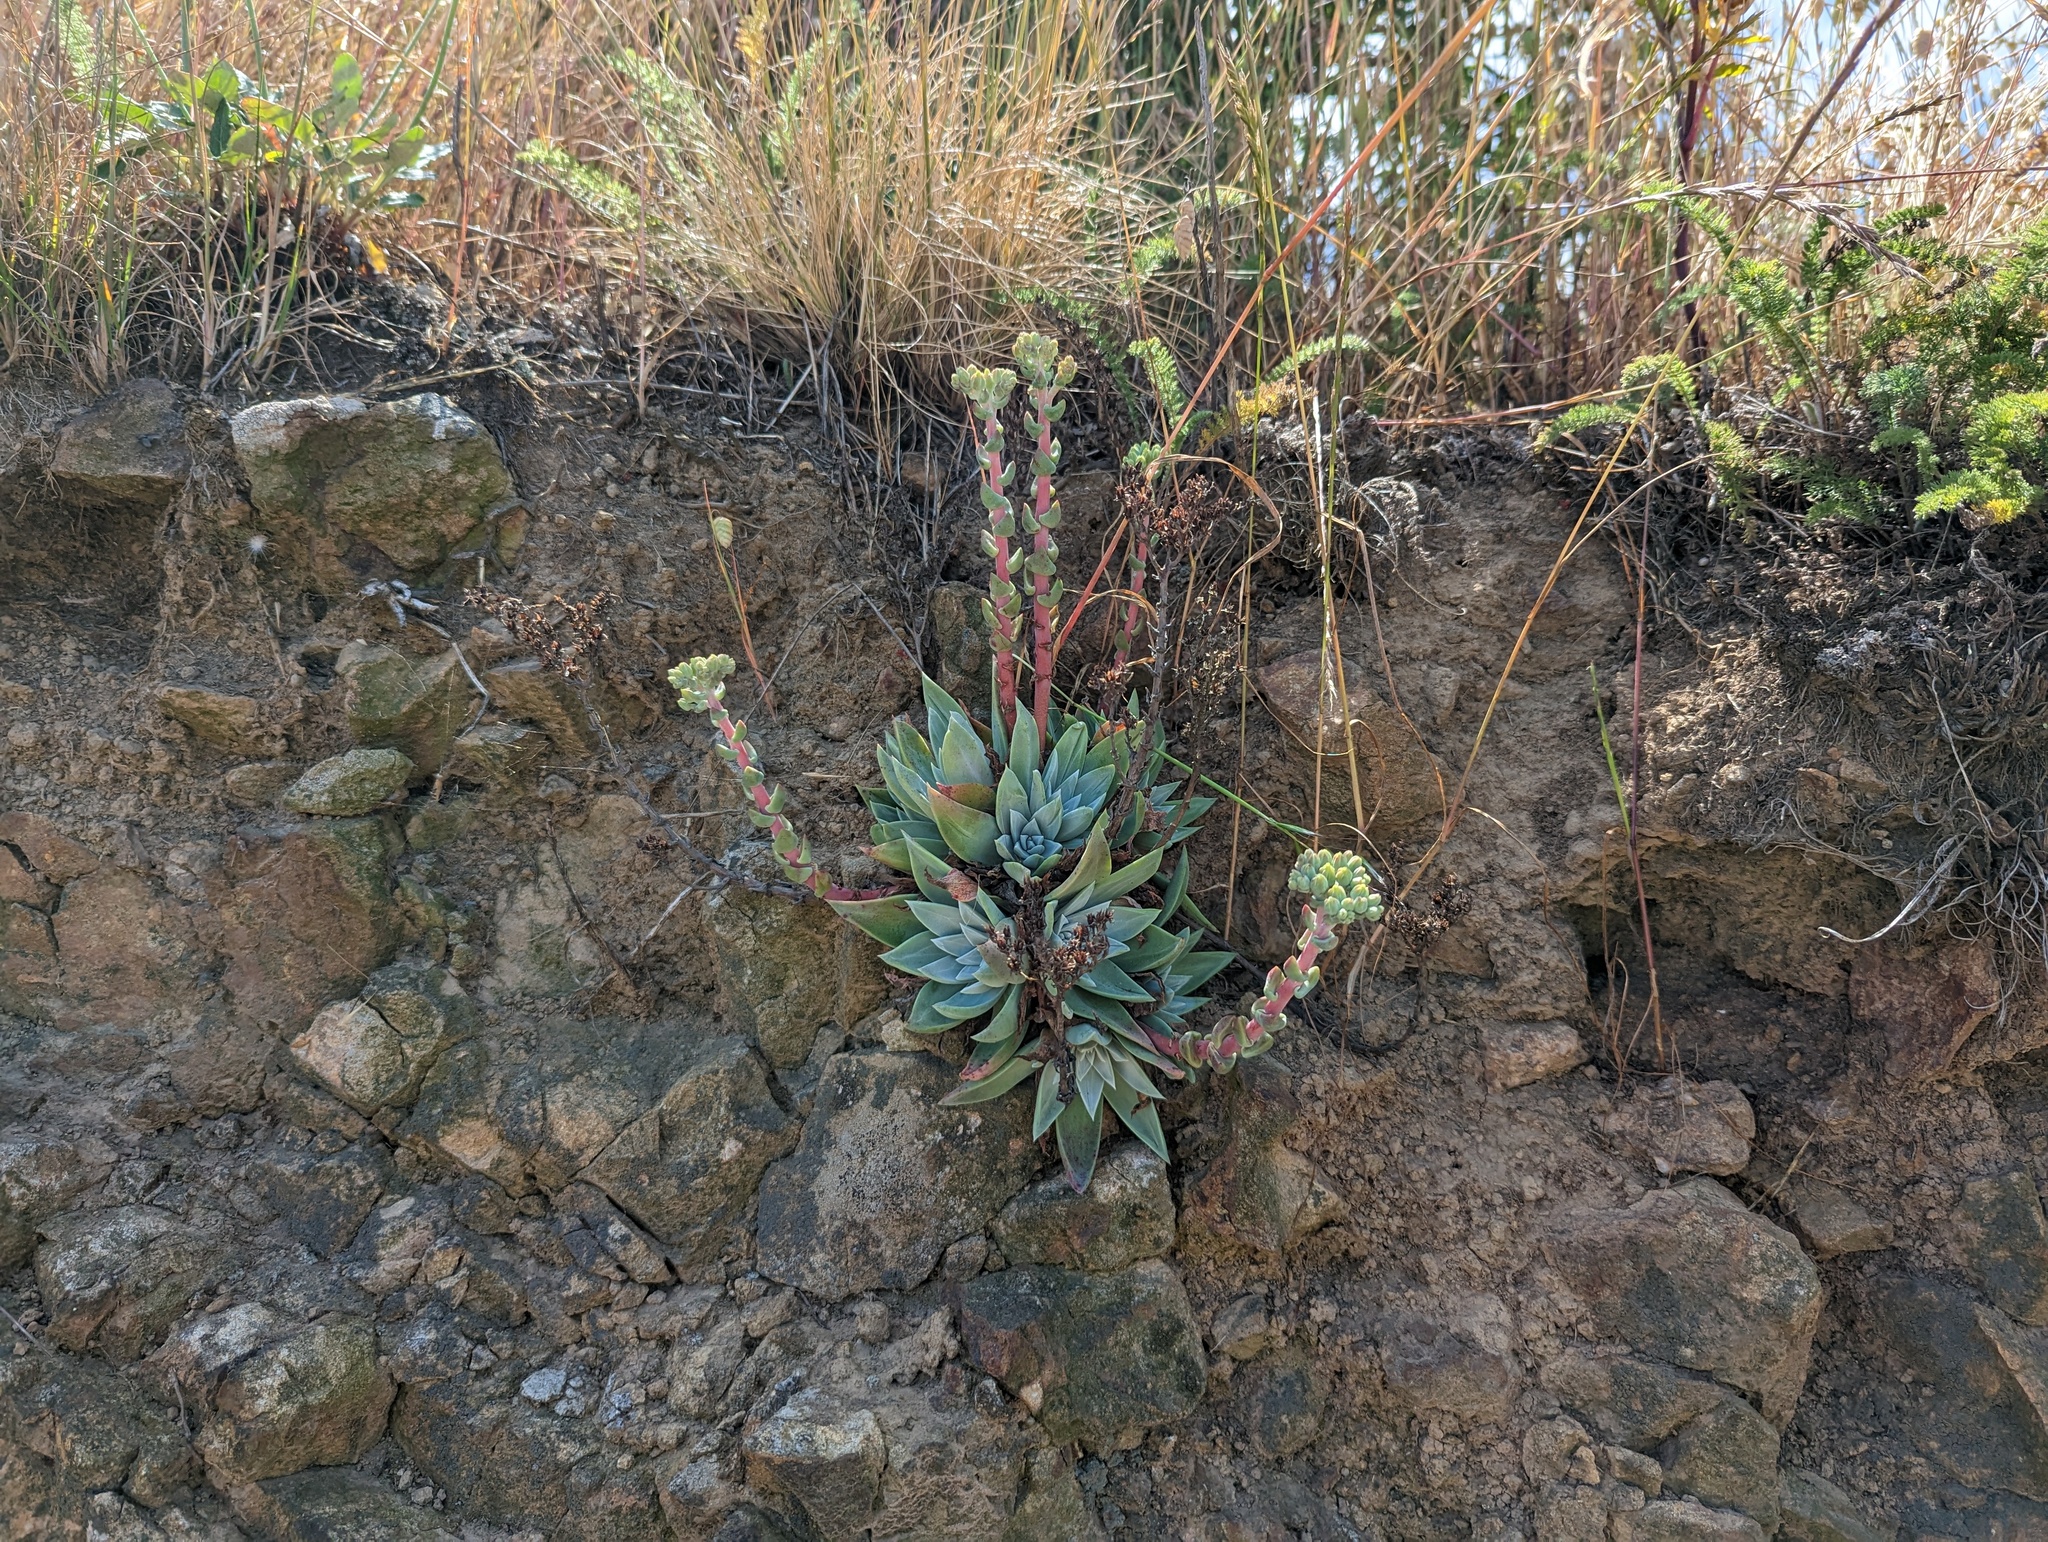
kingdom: Plantae
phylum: Tracheophyta
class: Magnoliopsida
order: Saxifragales
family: Crassulaceae
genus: Dudleya
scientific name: Dudleya farinosa
